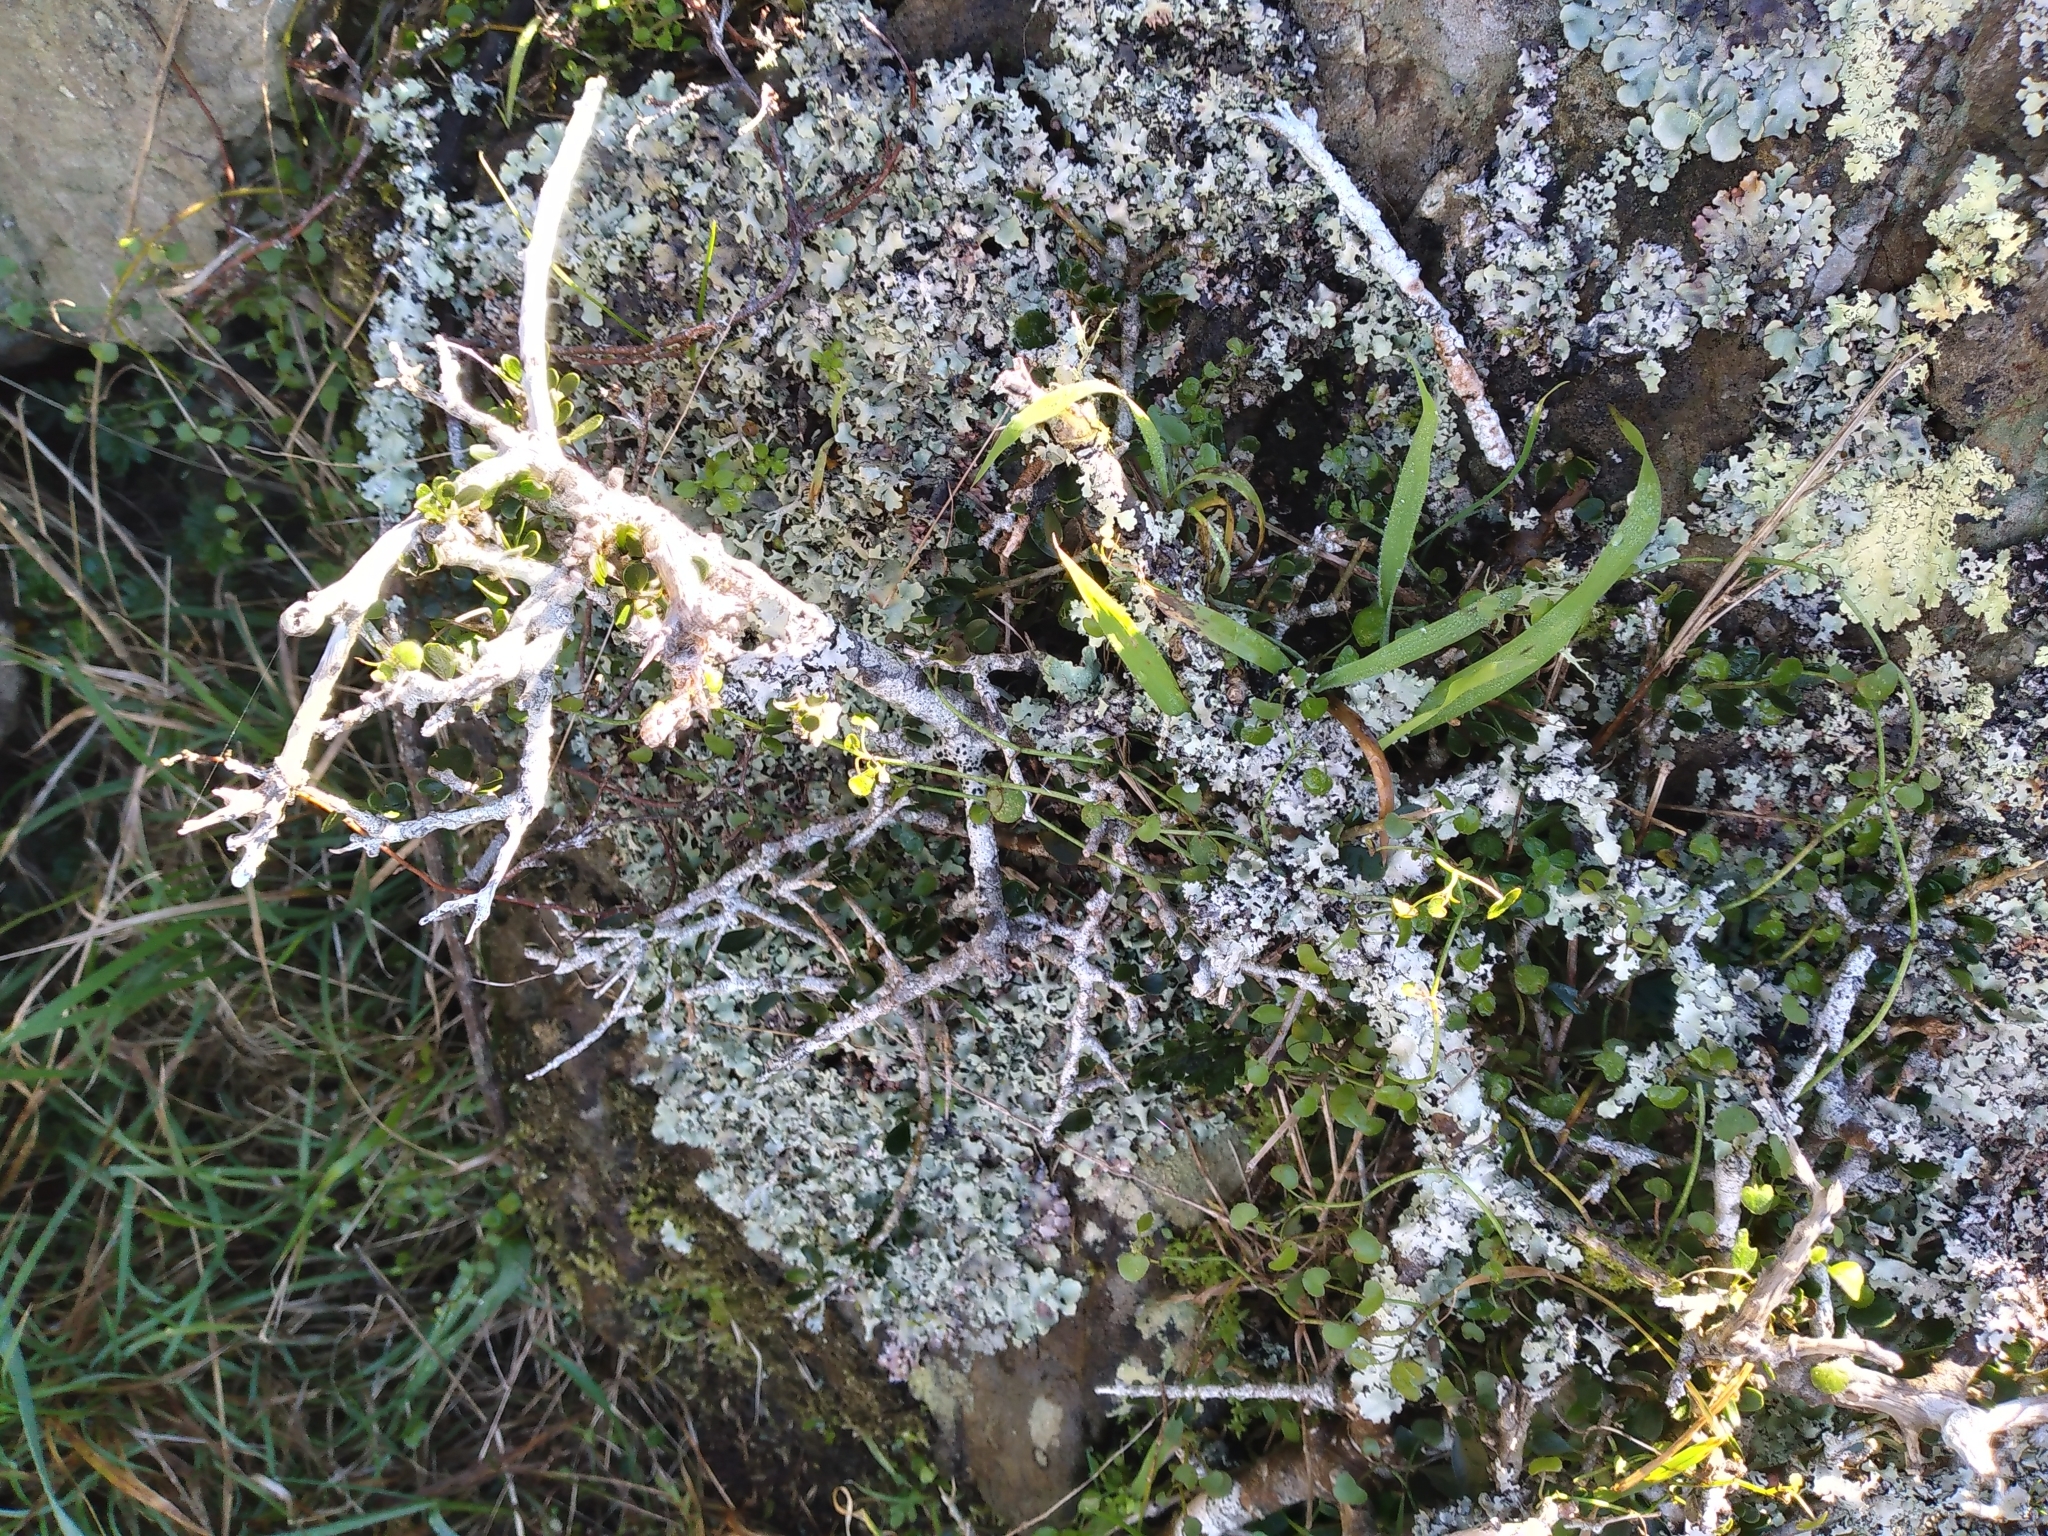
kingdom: Plantae
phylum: Tracheophyta
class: Magnoliopsida
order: Malpighiales
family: Violaceae
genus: Melicytus
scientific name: Melicytus crassifolius
